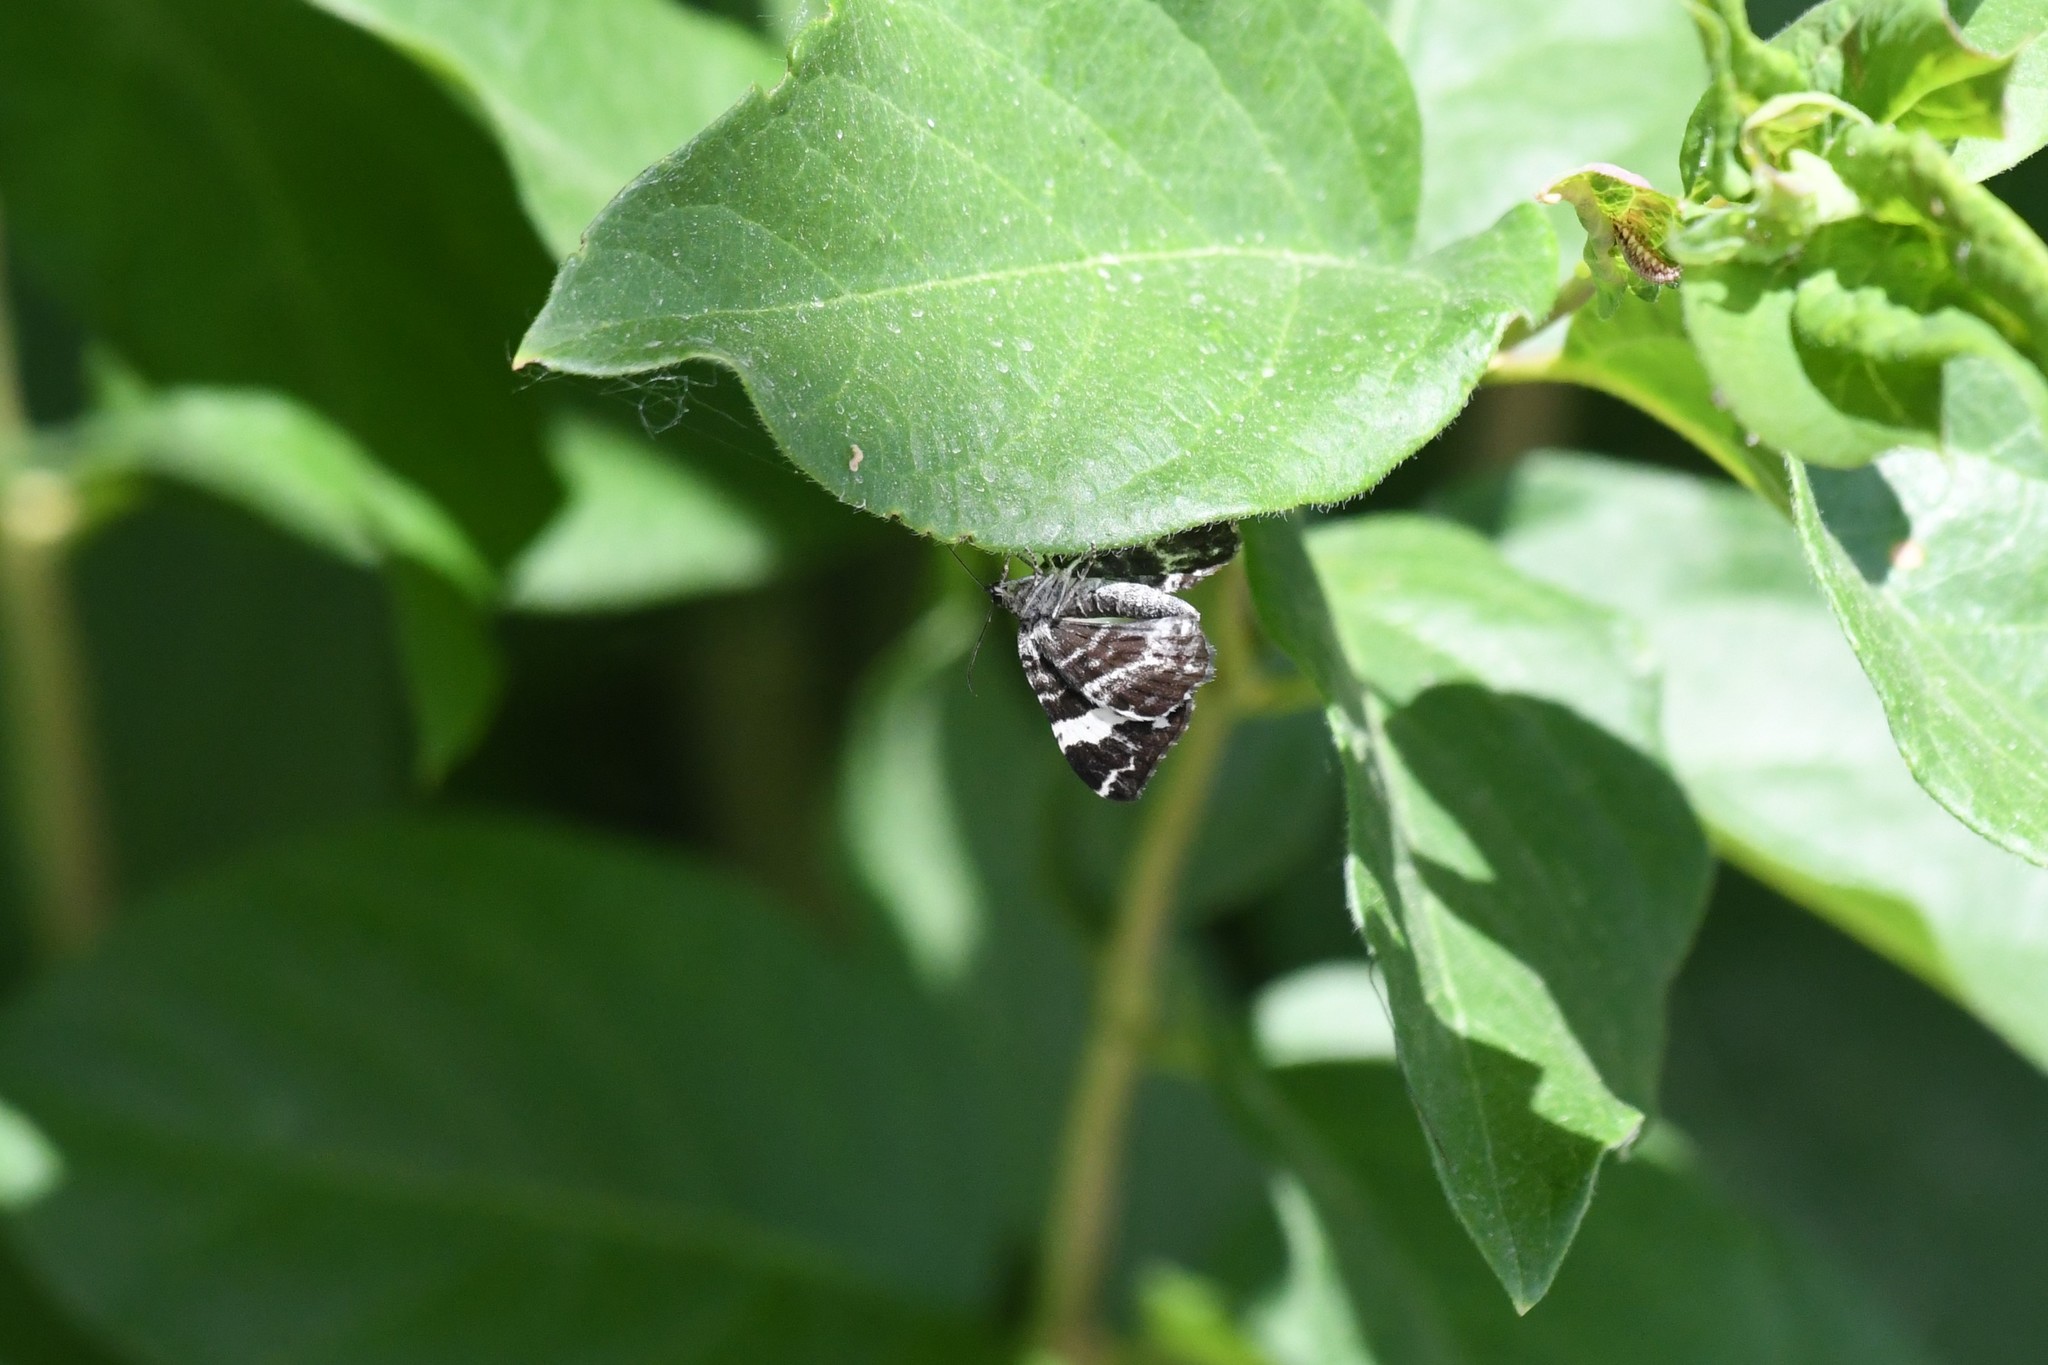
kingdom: Animalia
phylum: Arthropoda
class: Insecta
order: Lepidoptera
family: Geometridae
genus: Rheumaptera
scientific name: Rheumaptera
